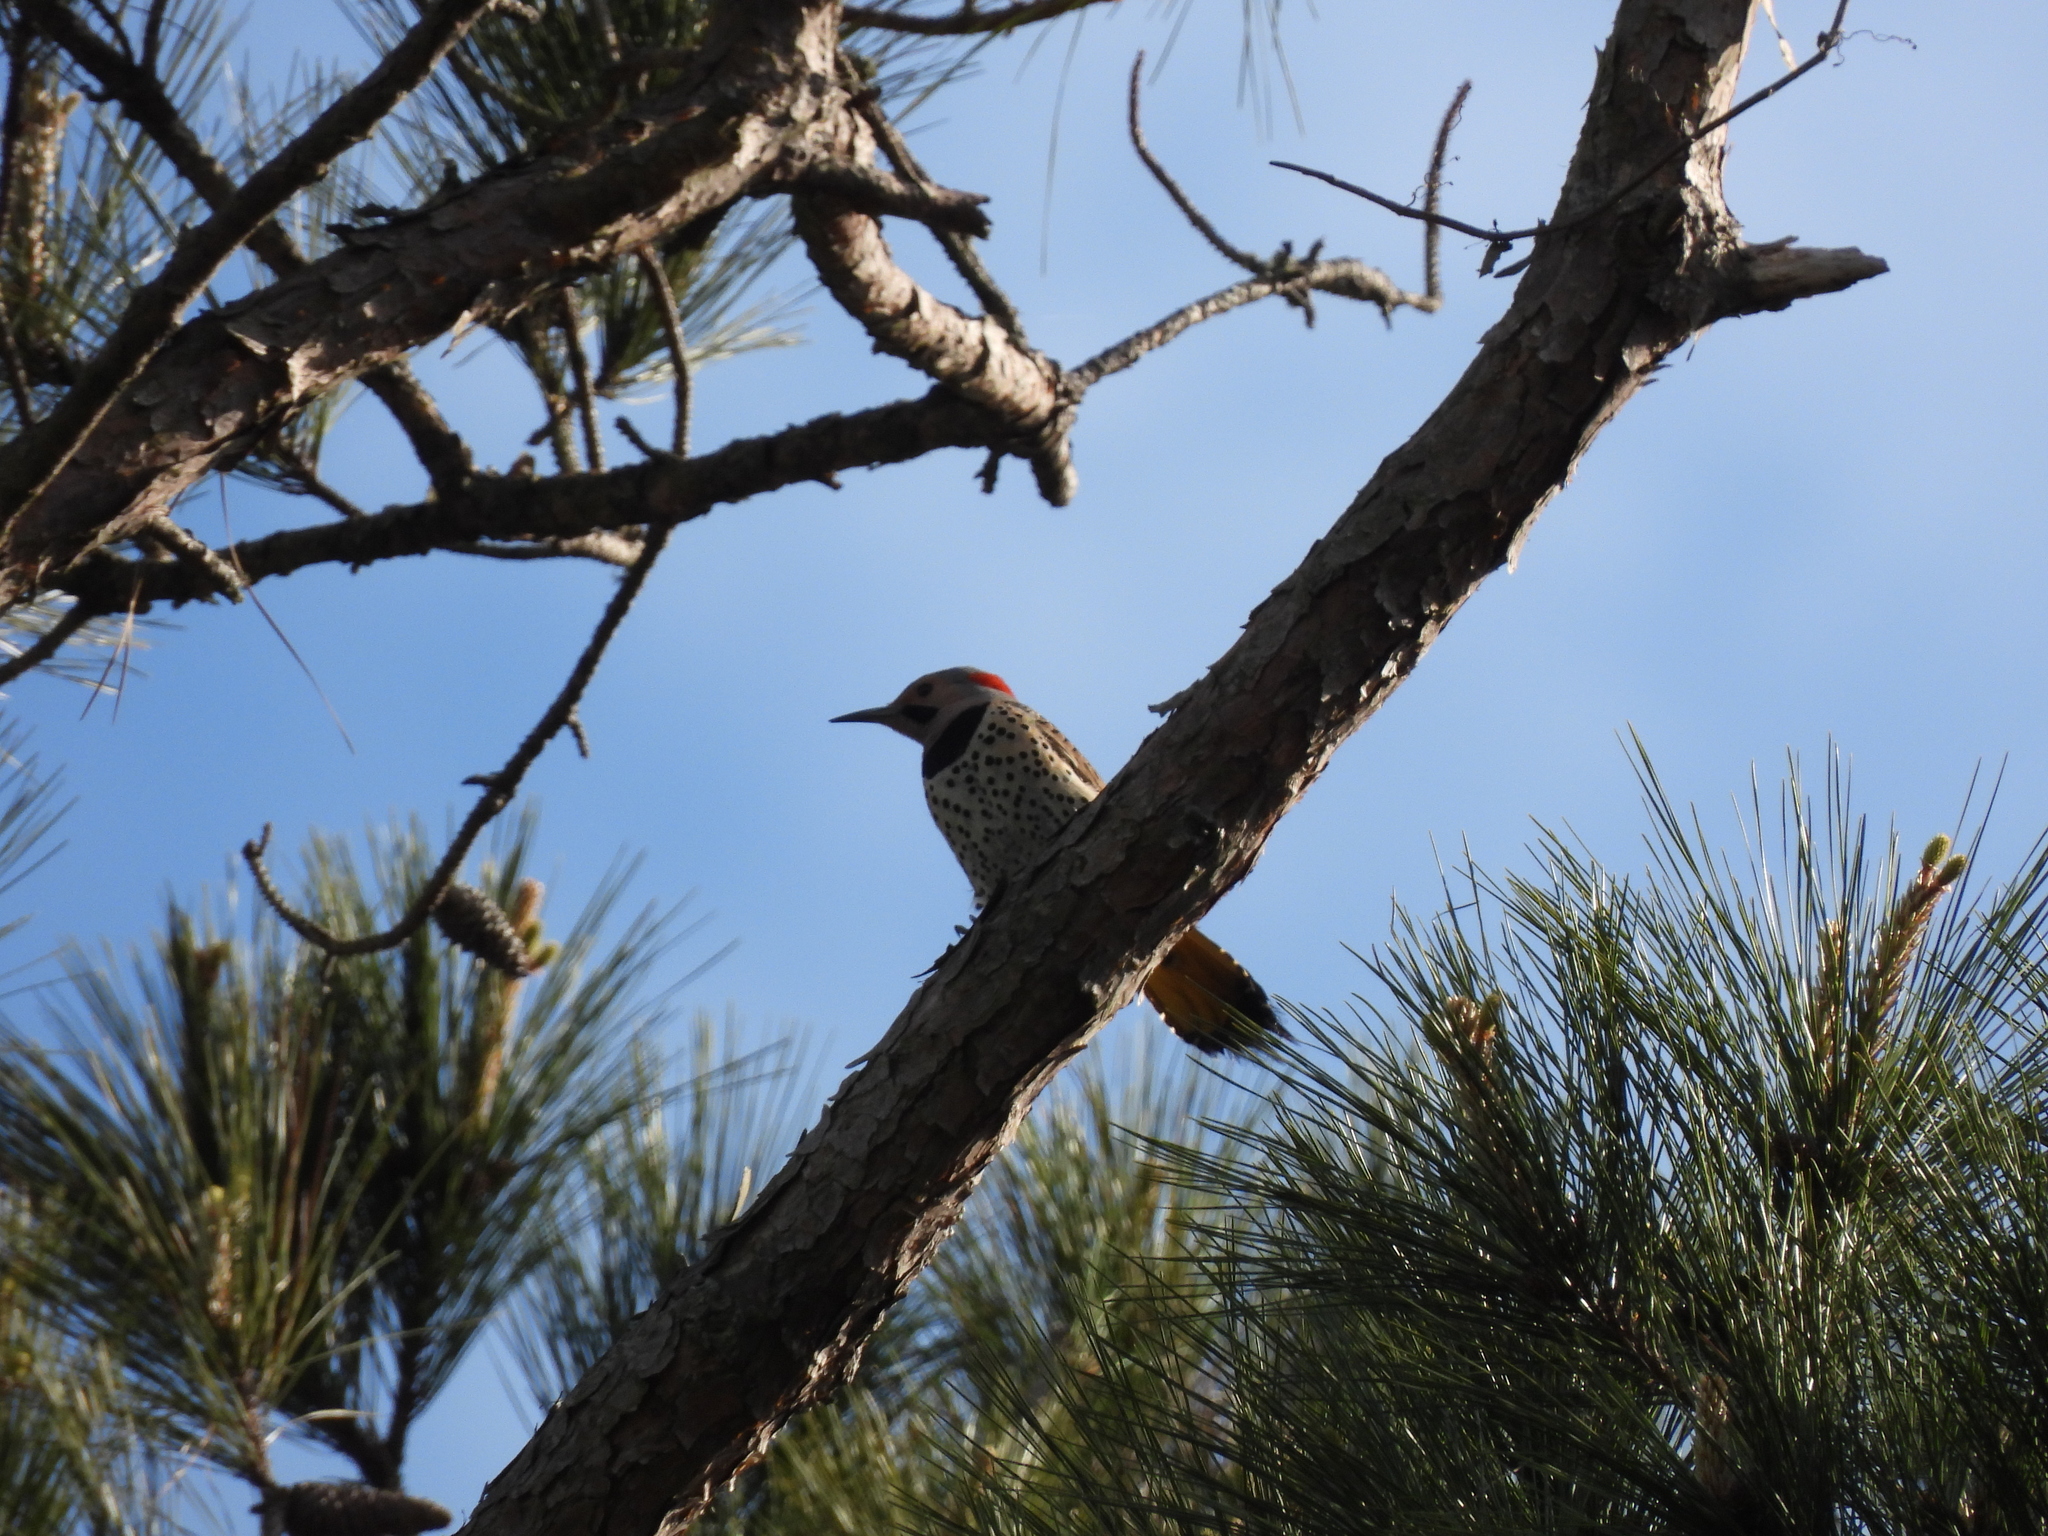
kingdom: Animalia
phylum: Chordata
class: Aves
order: Piciformes
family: Picidae
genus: Colaptes
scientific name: Colaptes auratus
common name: Northern flicker
